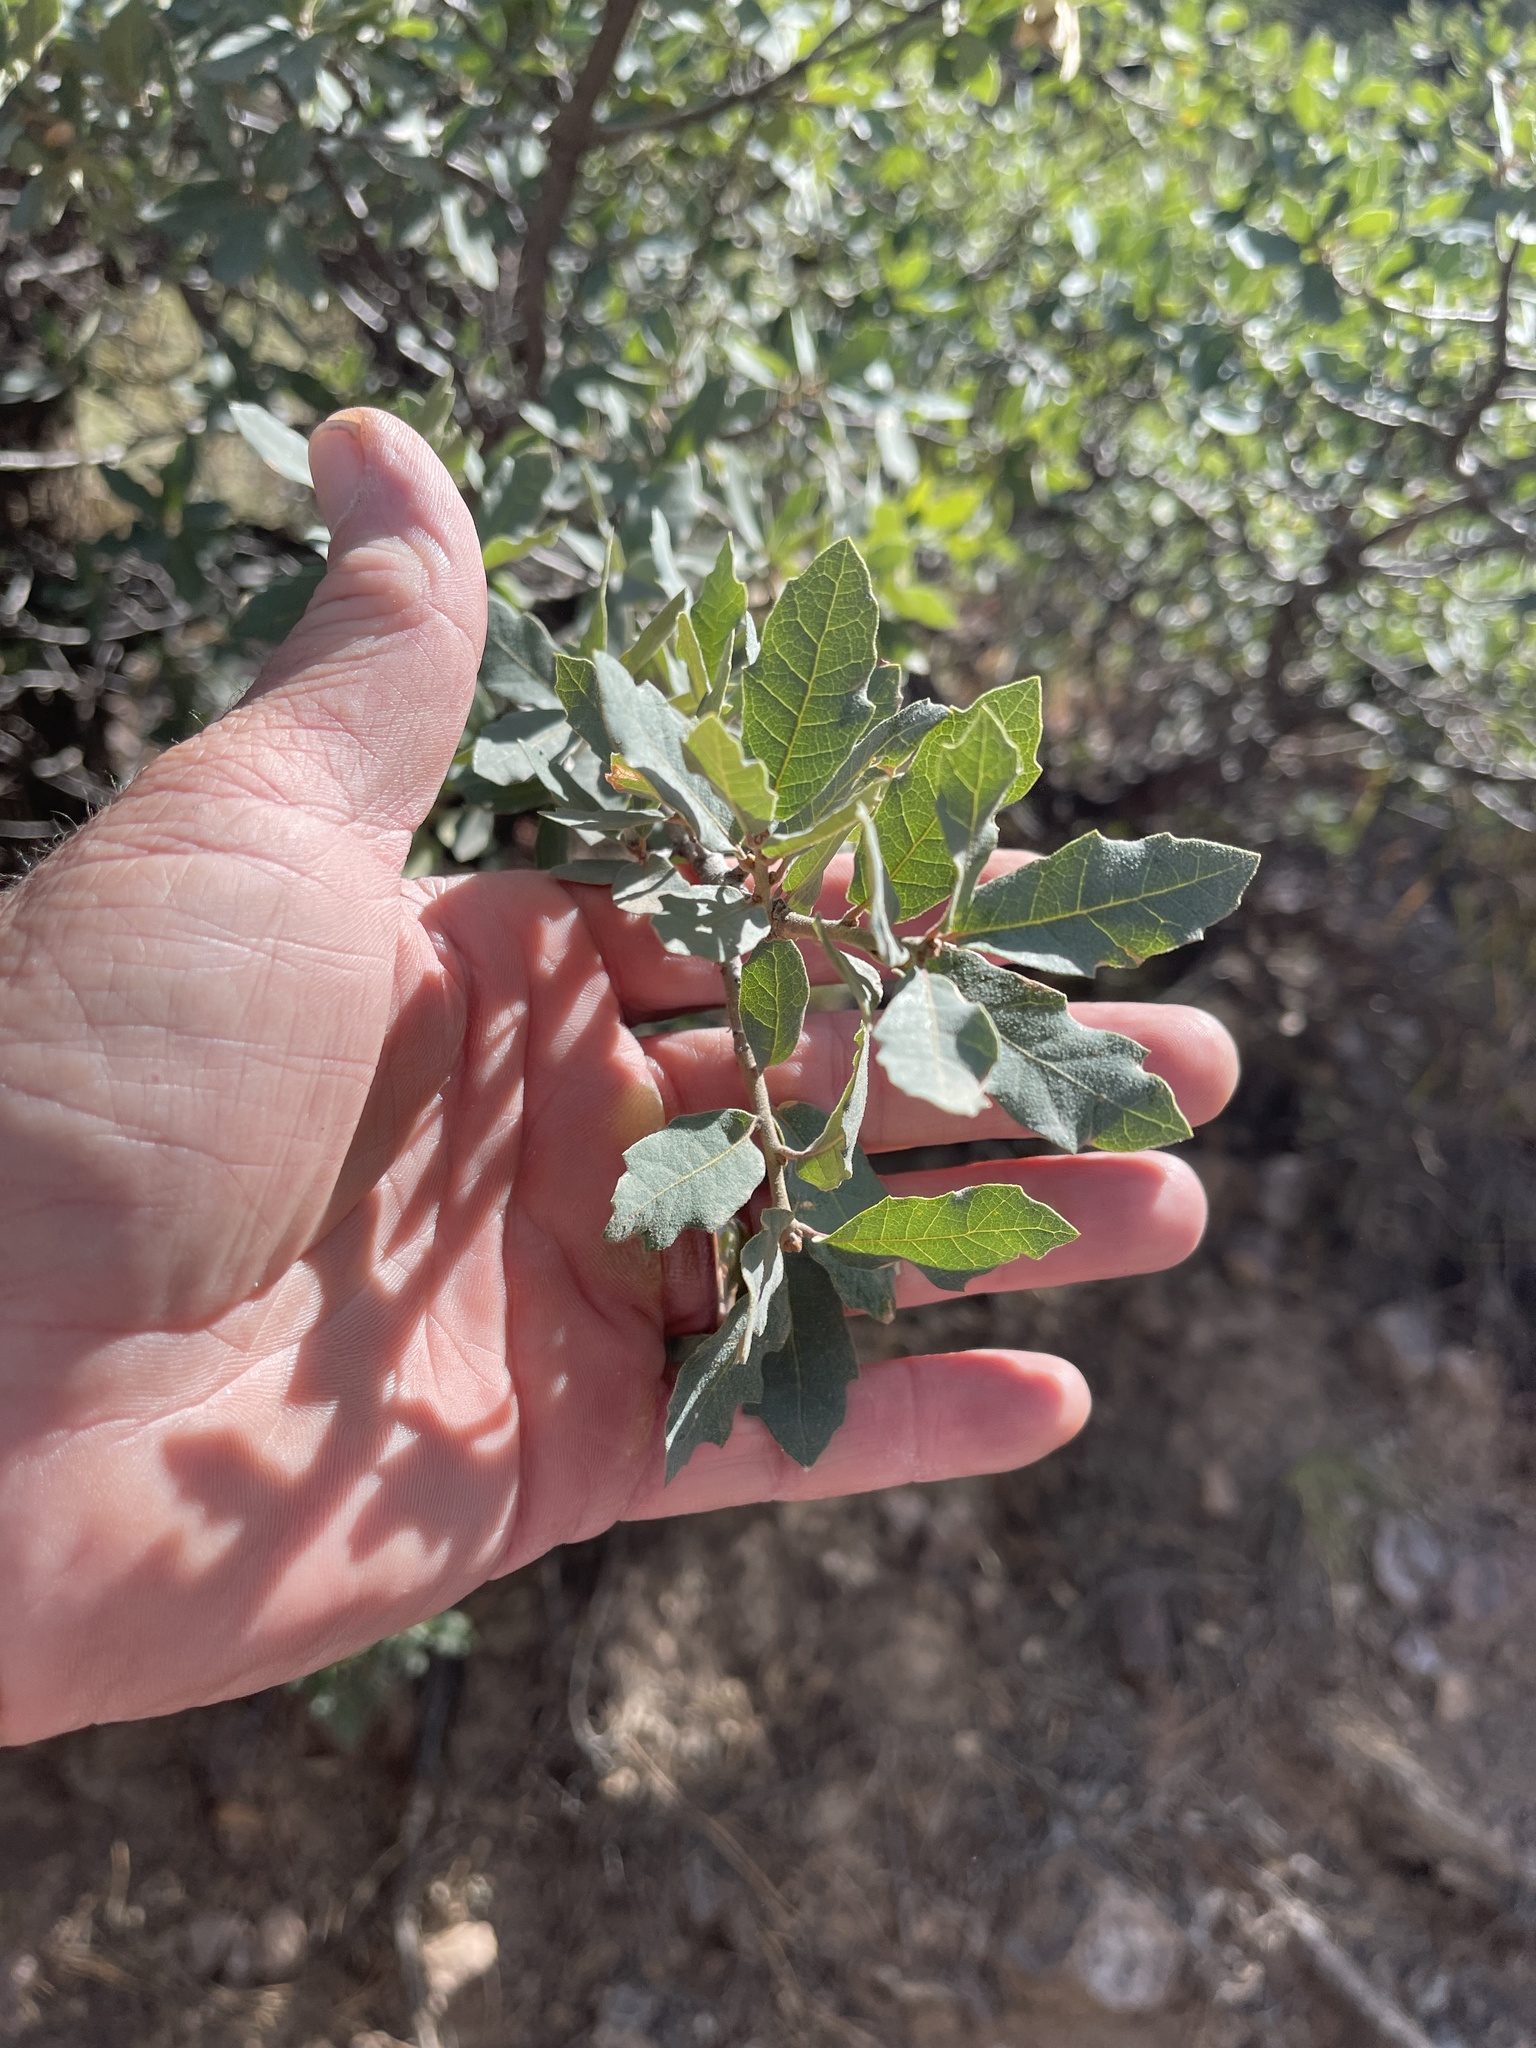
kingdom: Plantae
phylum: Tracheophyta
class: Magnoliopsida
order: Fagales
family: Fagaceae
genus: Quercus
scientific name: Quercus turbinella
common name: Sonoran scrub oak
